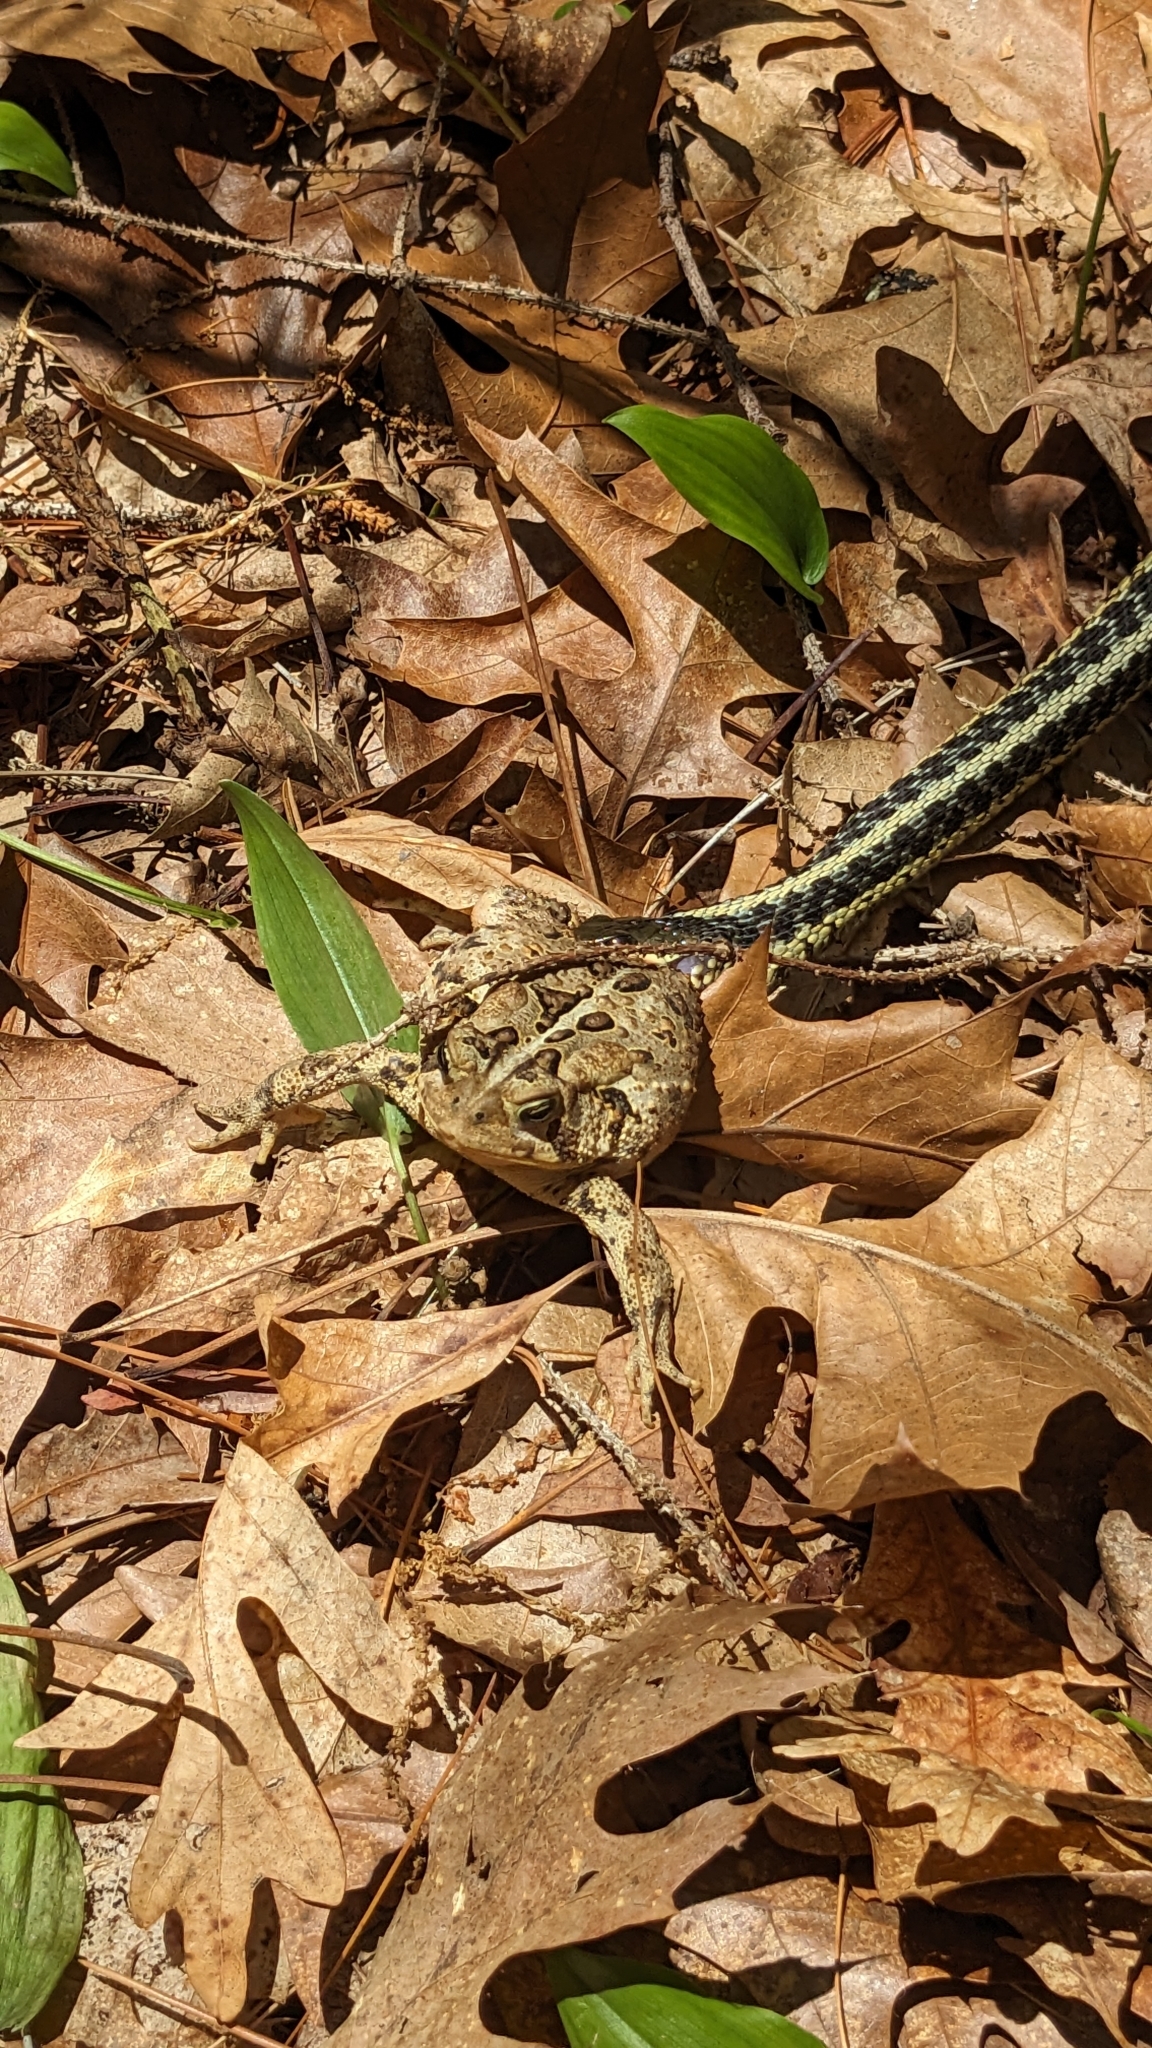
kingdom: Animalia
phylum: Chordata
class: Squamata
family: Colubridae
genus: Thamnophis
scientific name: Thamnophis sirtalis
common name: Common garter snake
